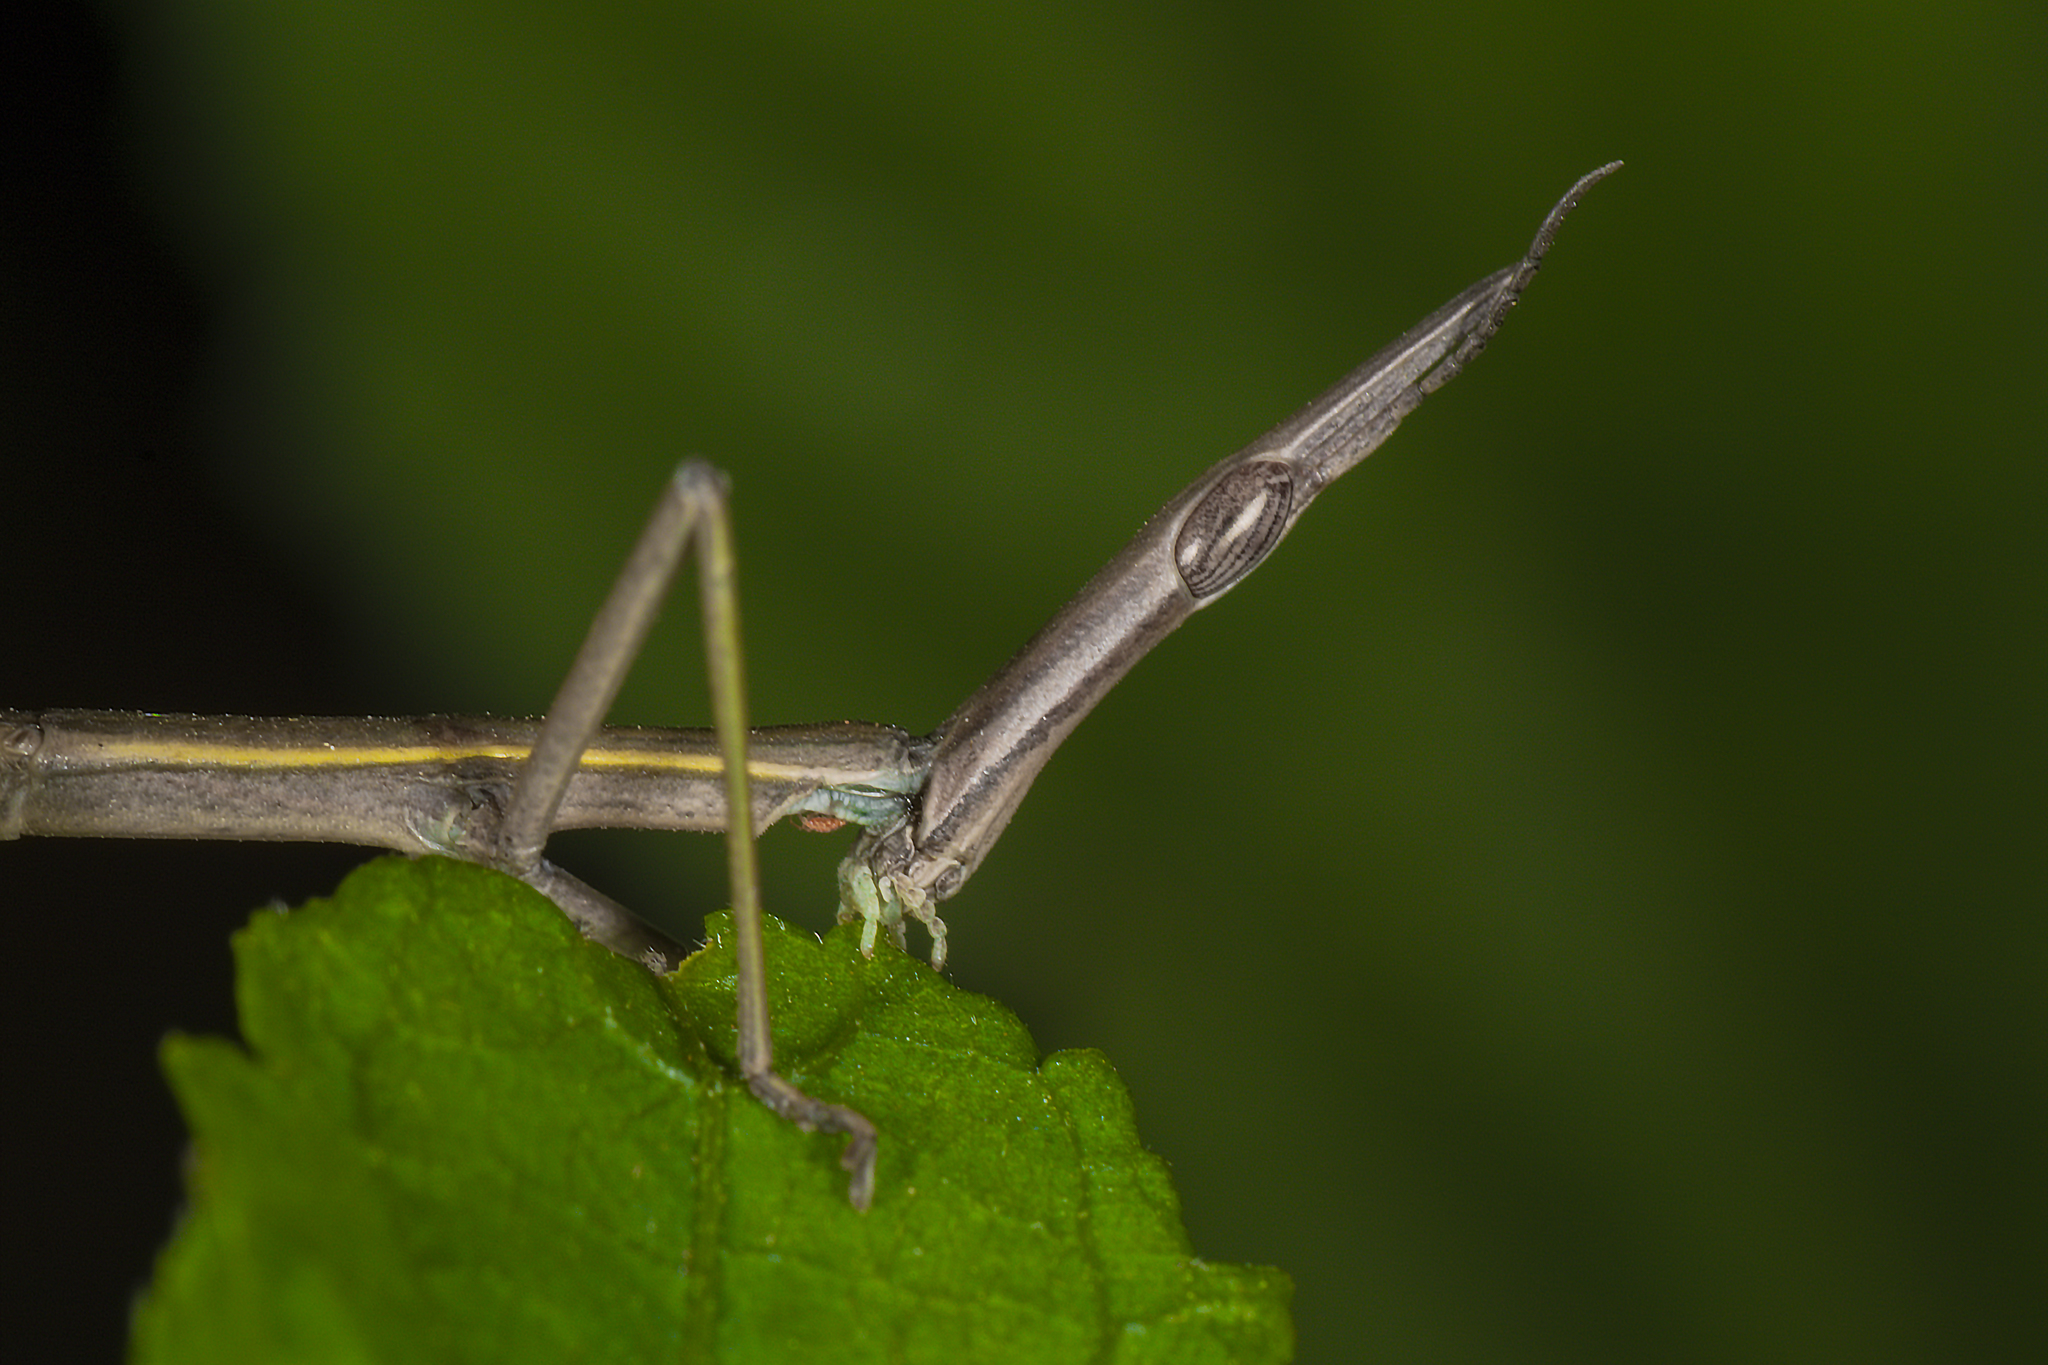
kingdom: Animalia
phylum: Arthropoda
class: Insecta
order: Orthoptera
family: Proscopiidae
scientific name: Proscopiidae
